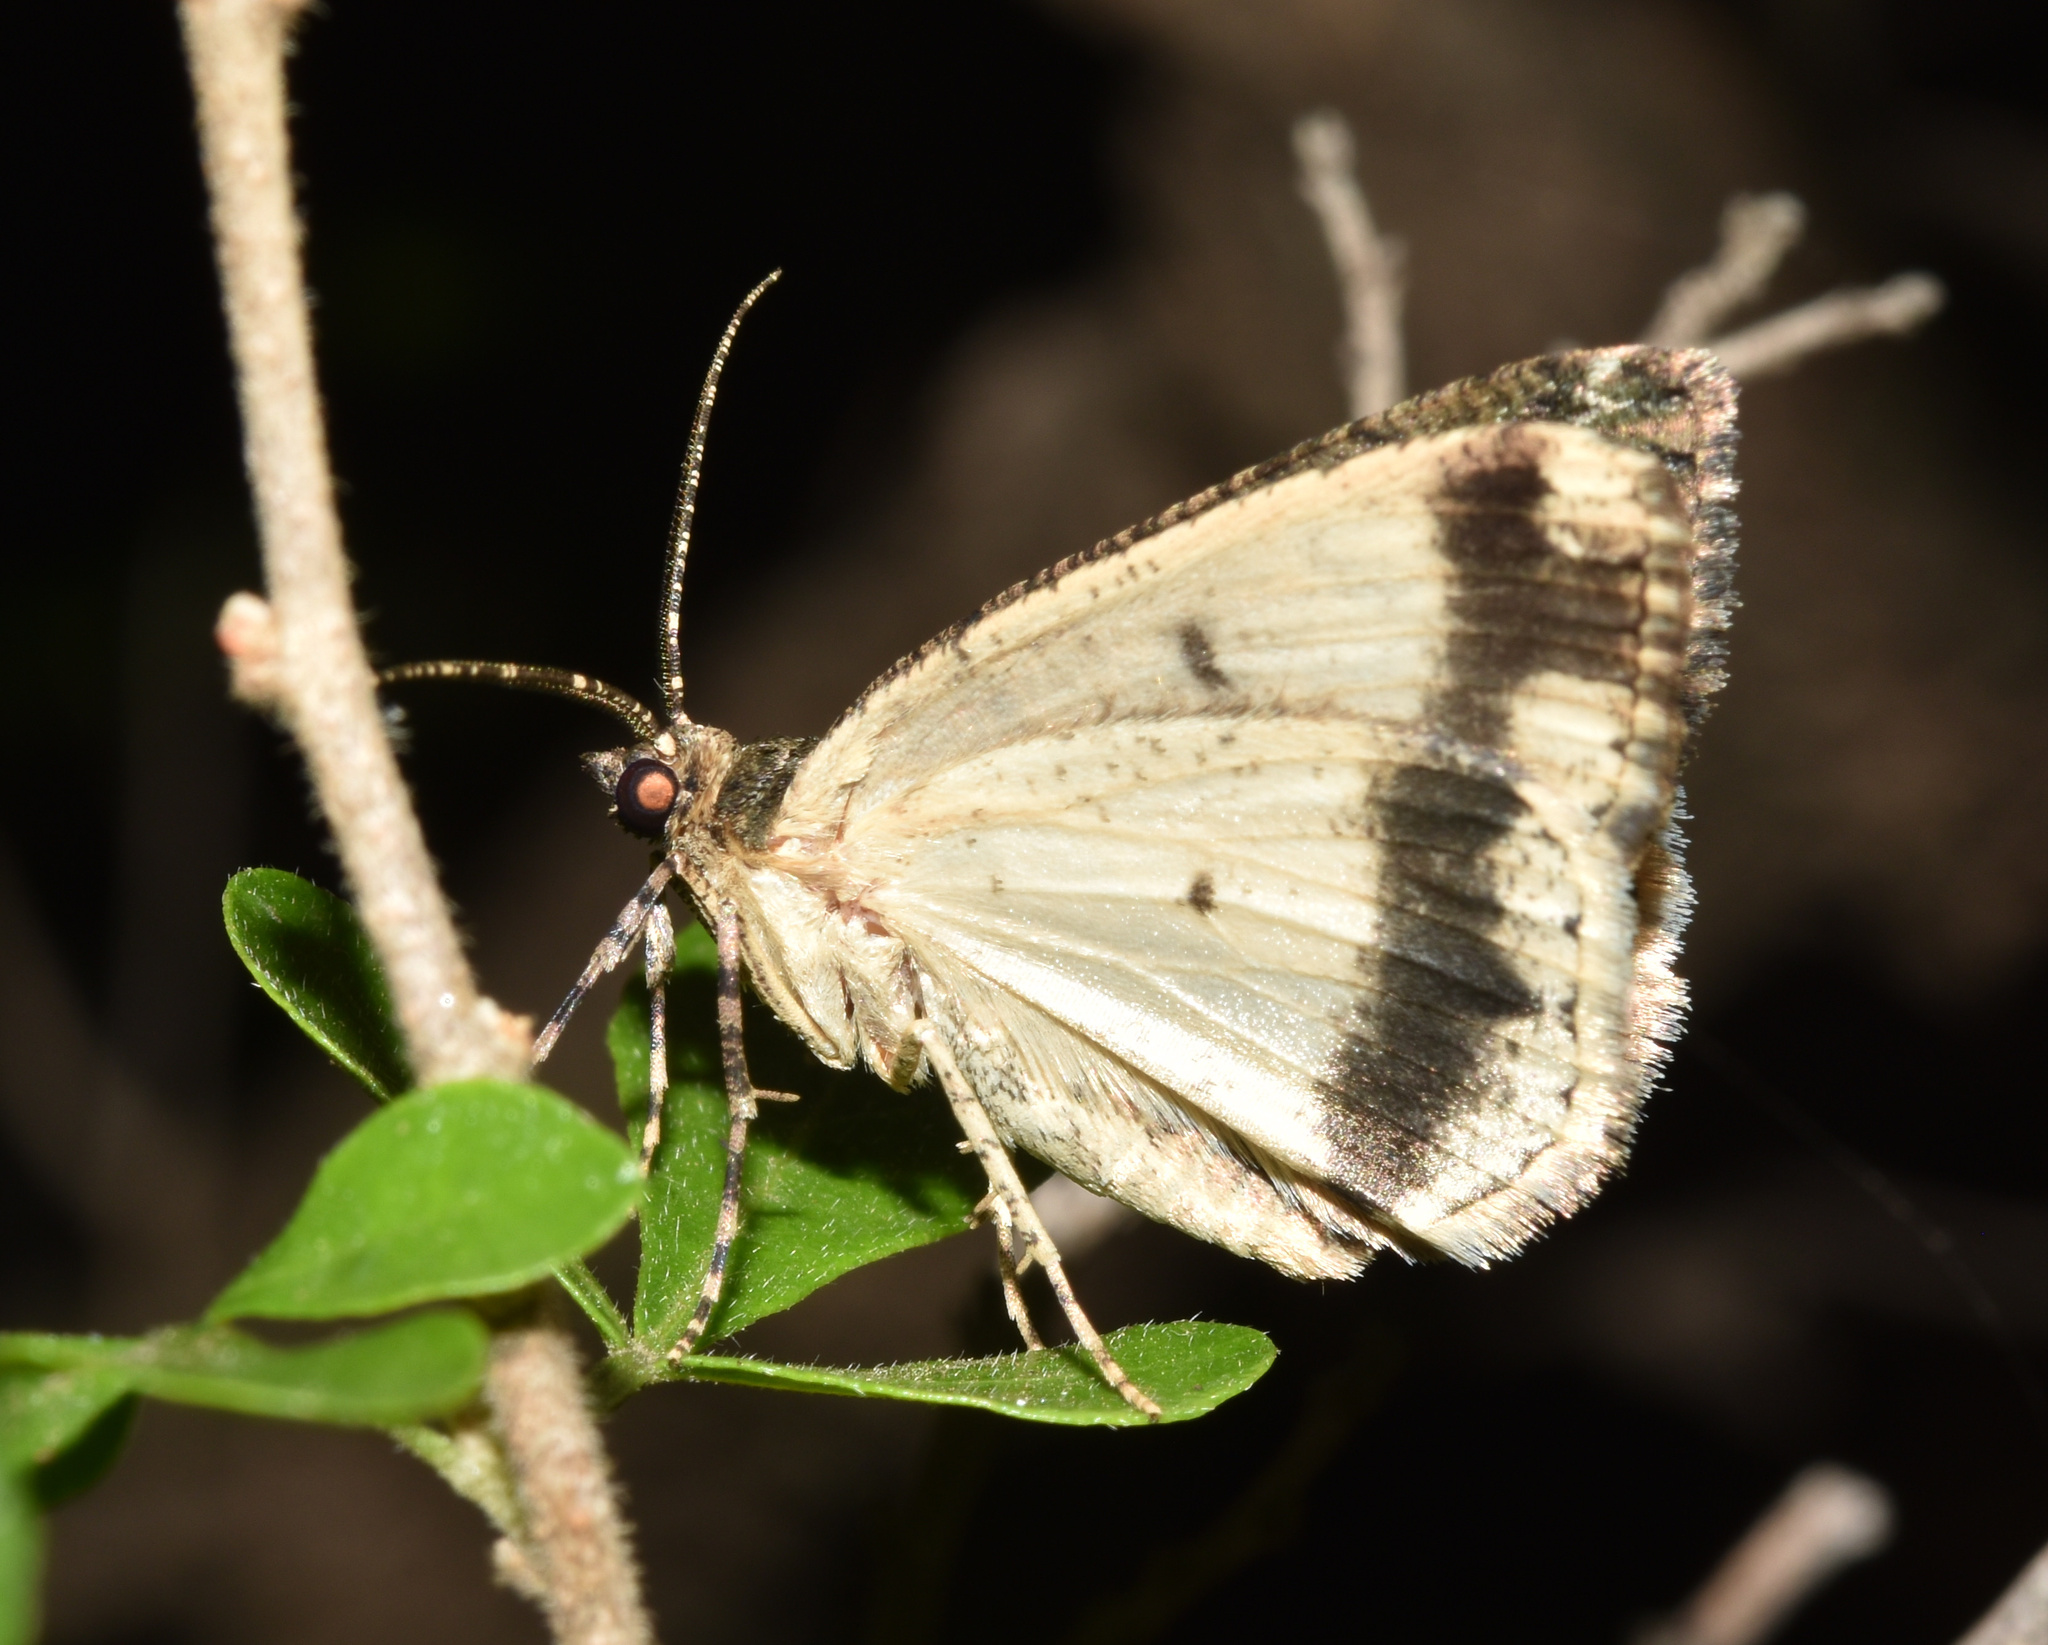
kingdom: Animalia
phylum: Arthropoda
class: Insecta
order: Lepidoptera
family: Geometridae
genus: Xylopteryx
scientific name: Xylopteryx arcuata
